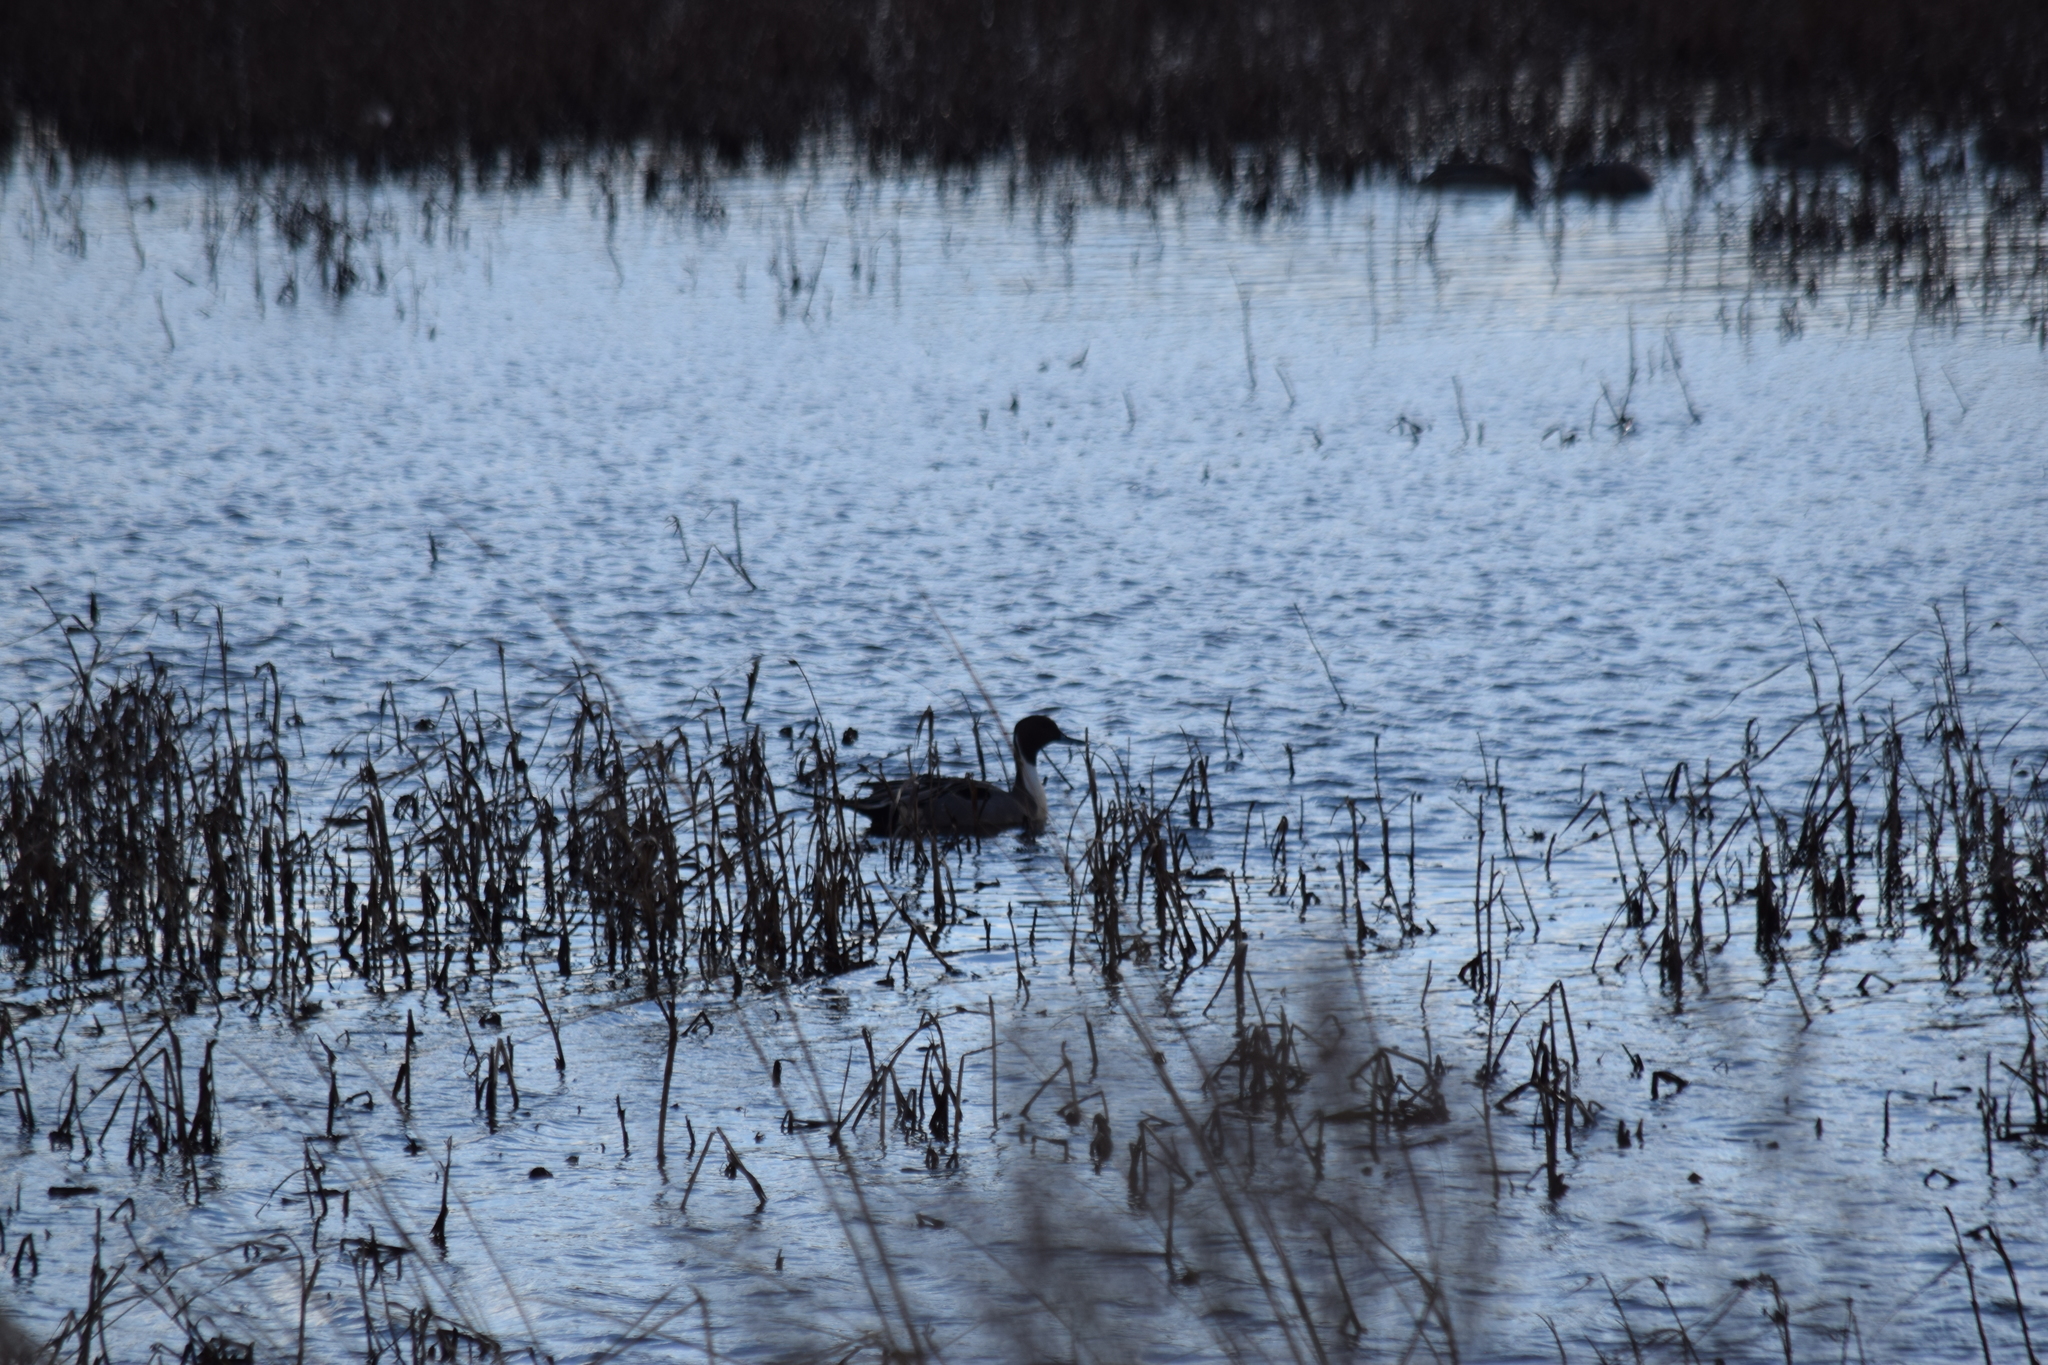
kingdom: Animalia
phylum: Chordata
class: Aves
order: Anseriformes
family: Anatidae
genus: Anas
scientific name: Anas acuta
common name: Northern pintail
